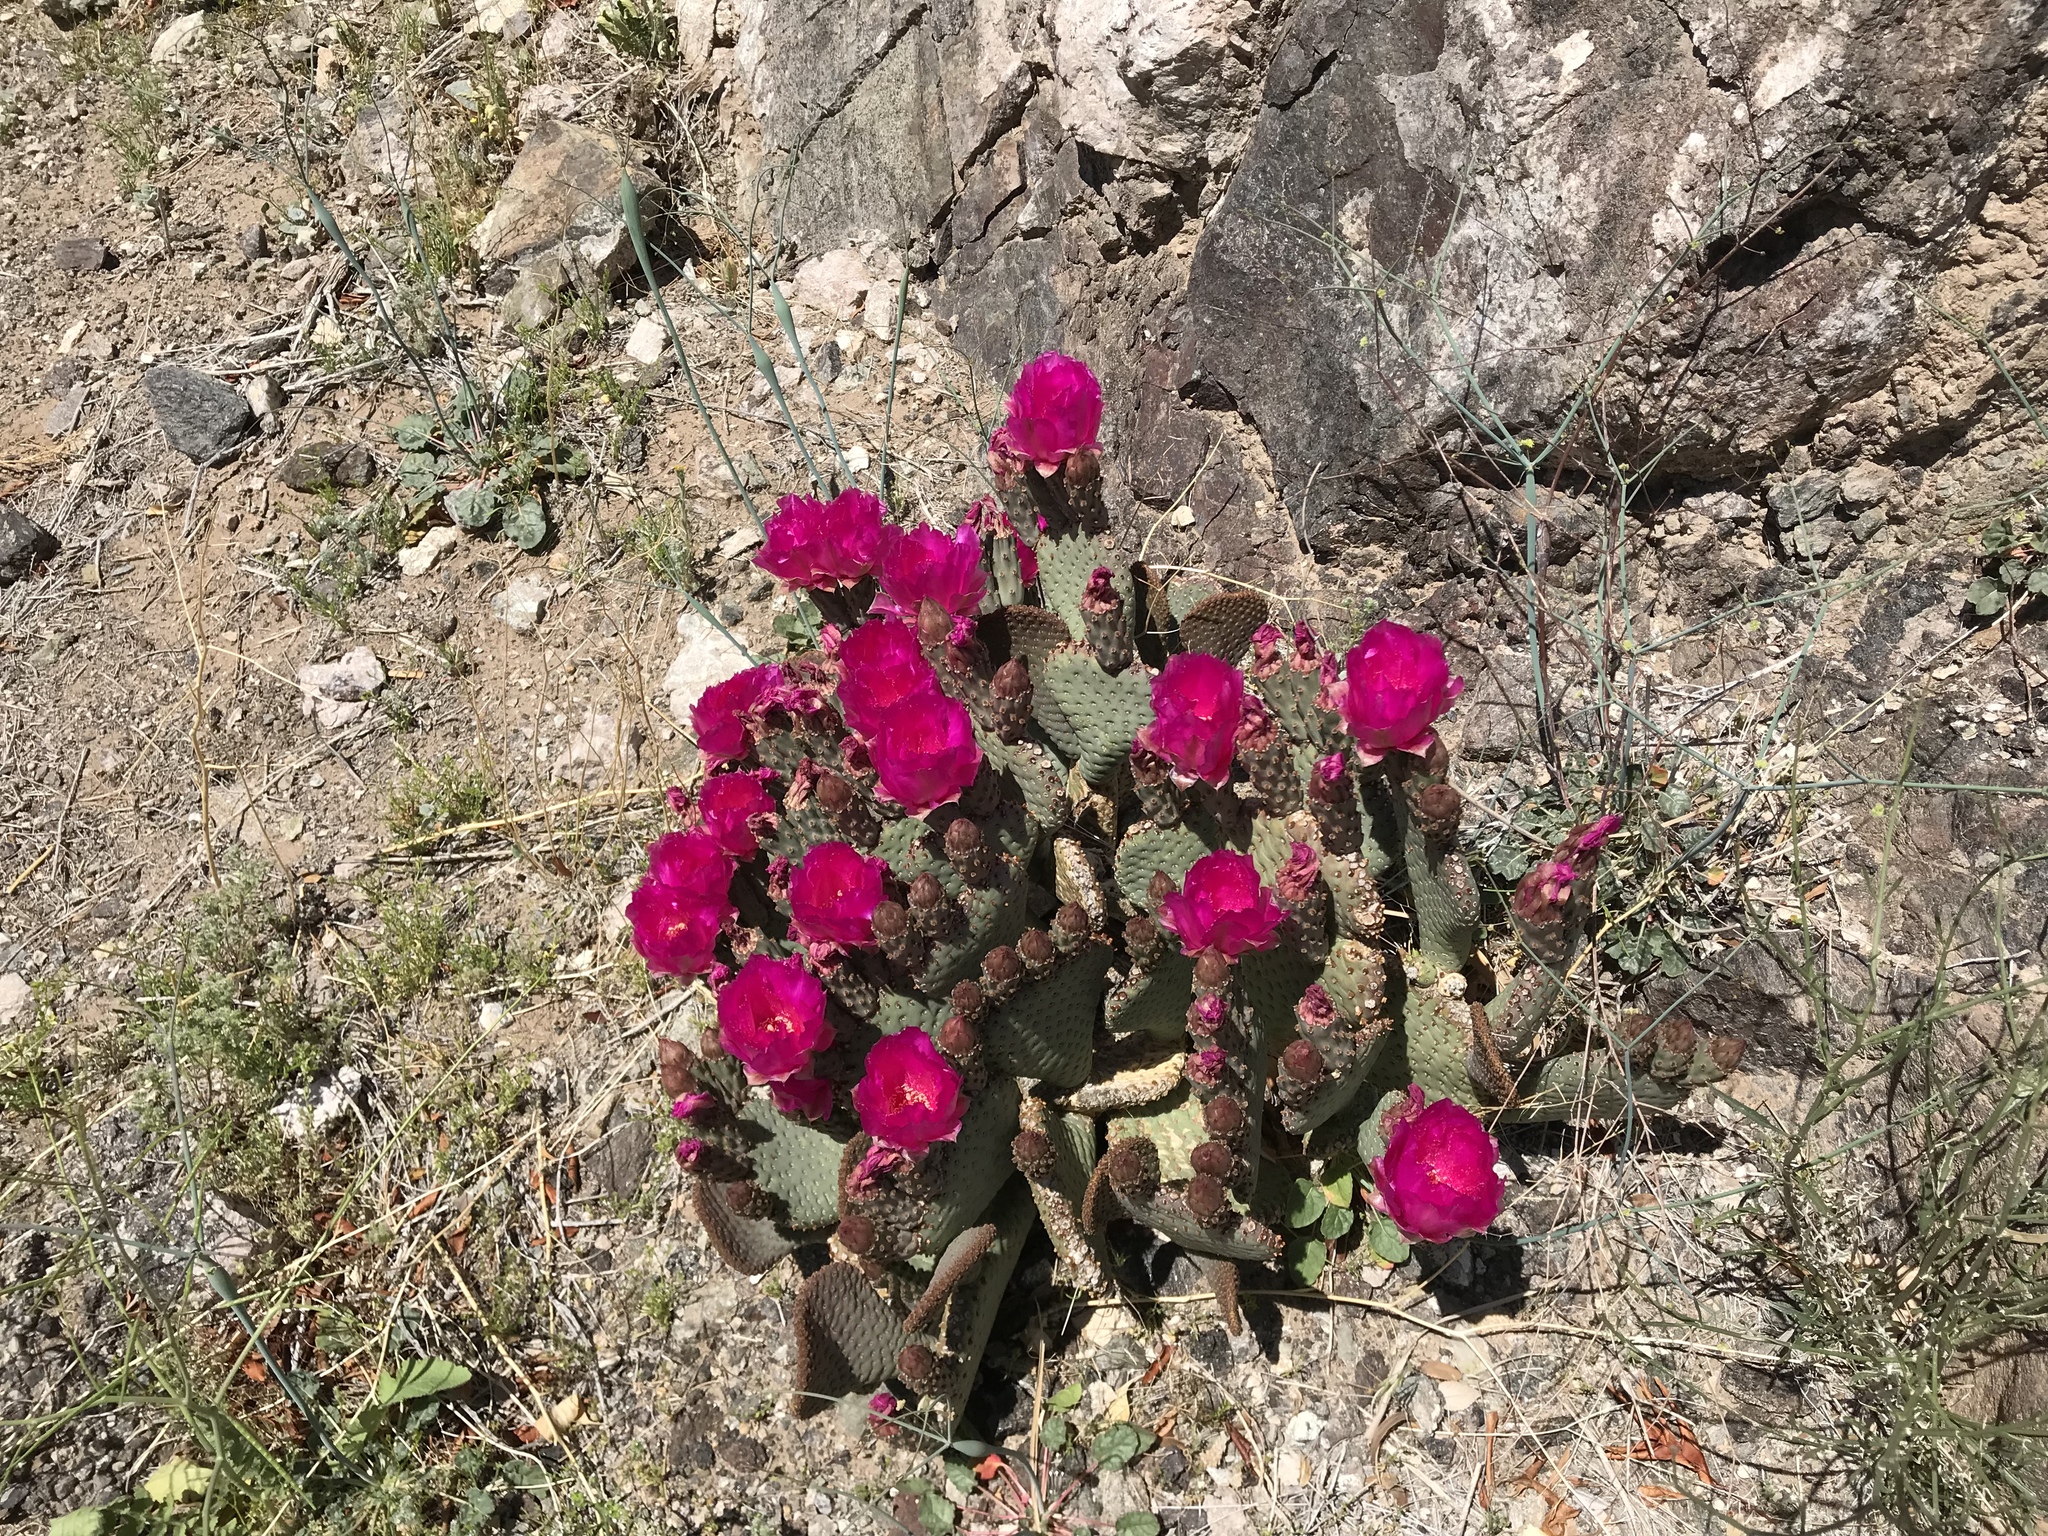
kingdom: Plantae
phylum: Tracheophyta
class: Magnoliopsida
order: Caryophyllales
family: Cactaceae
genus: Opuntia
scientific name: Opuntia basilaris
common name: Beavertail prickly-pear
